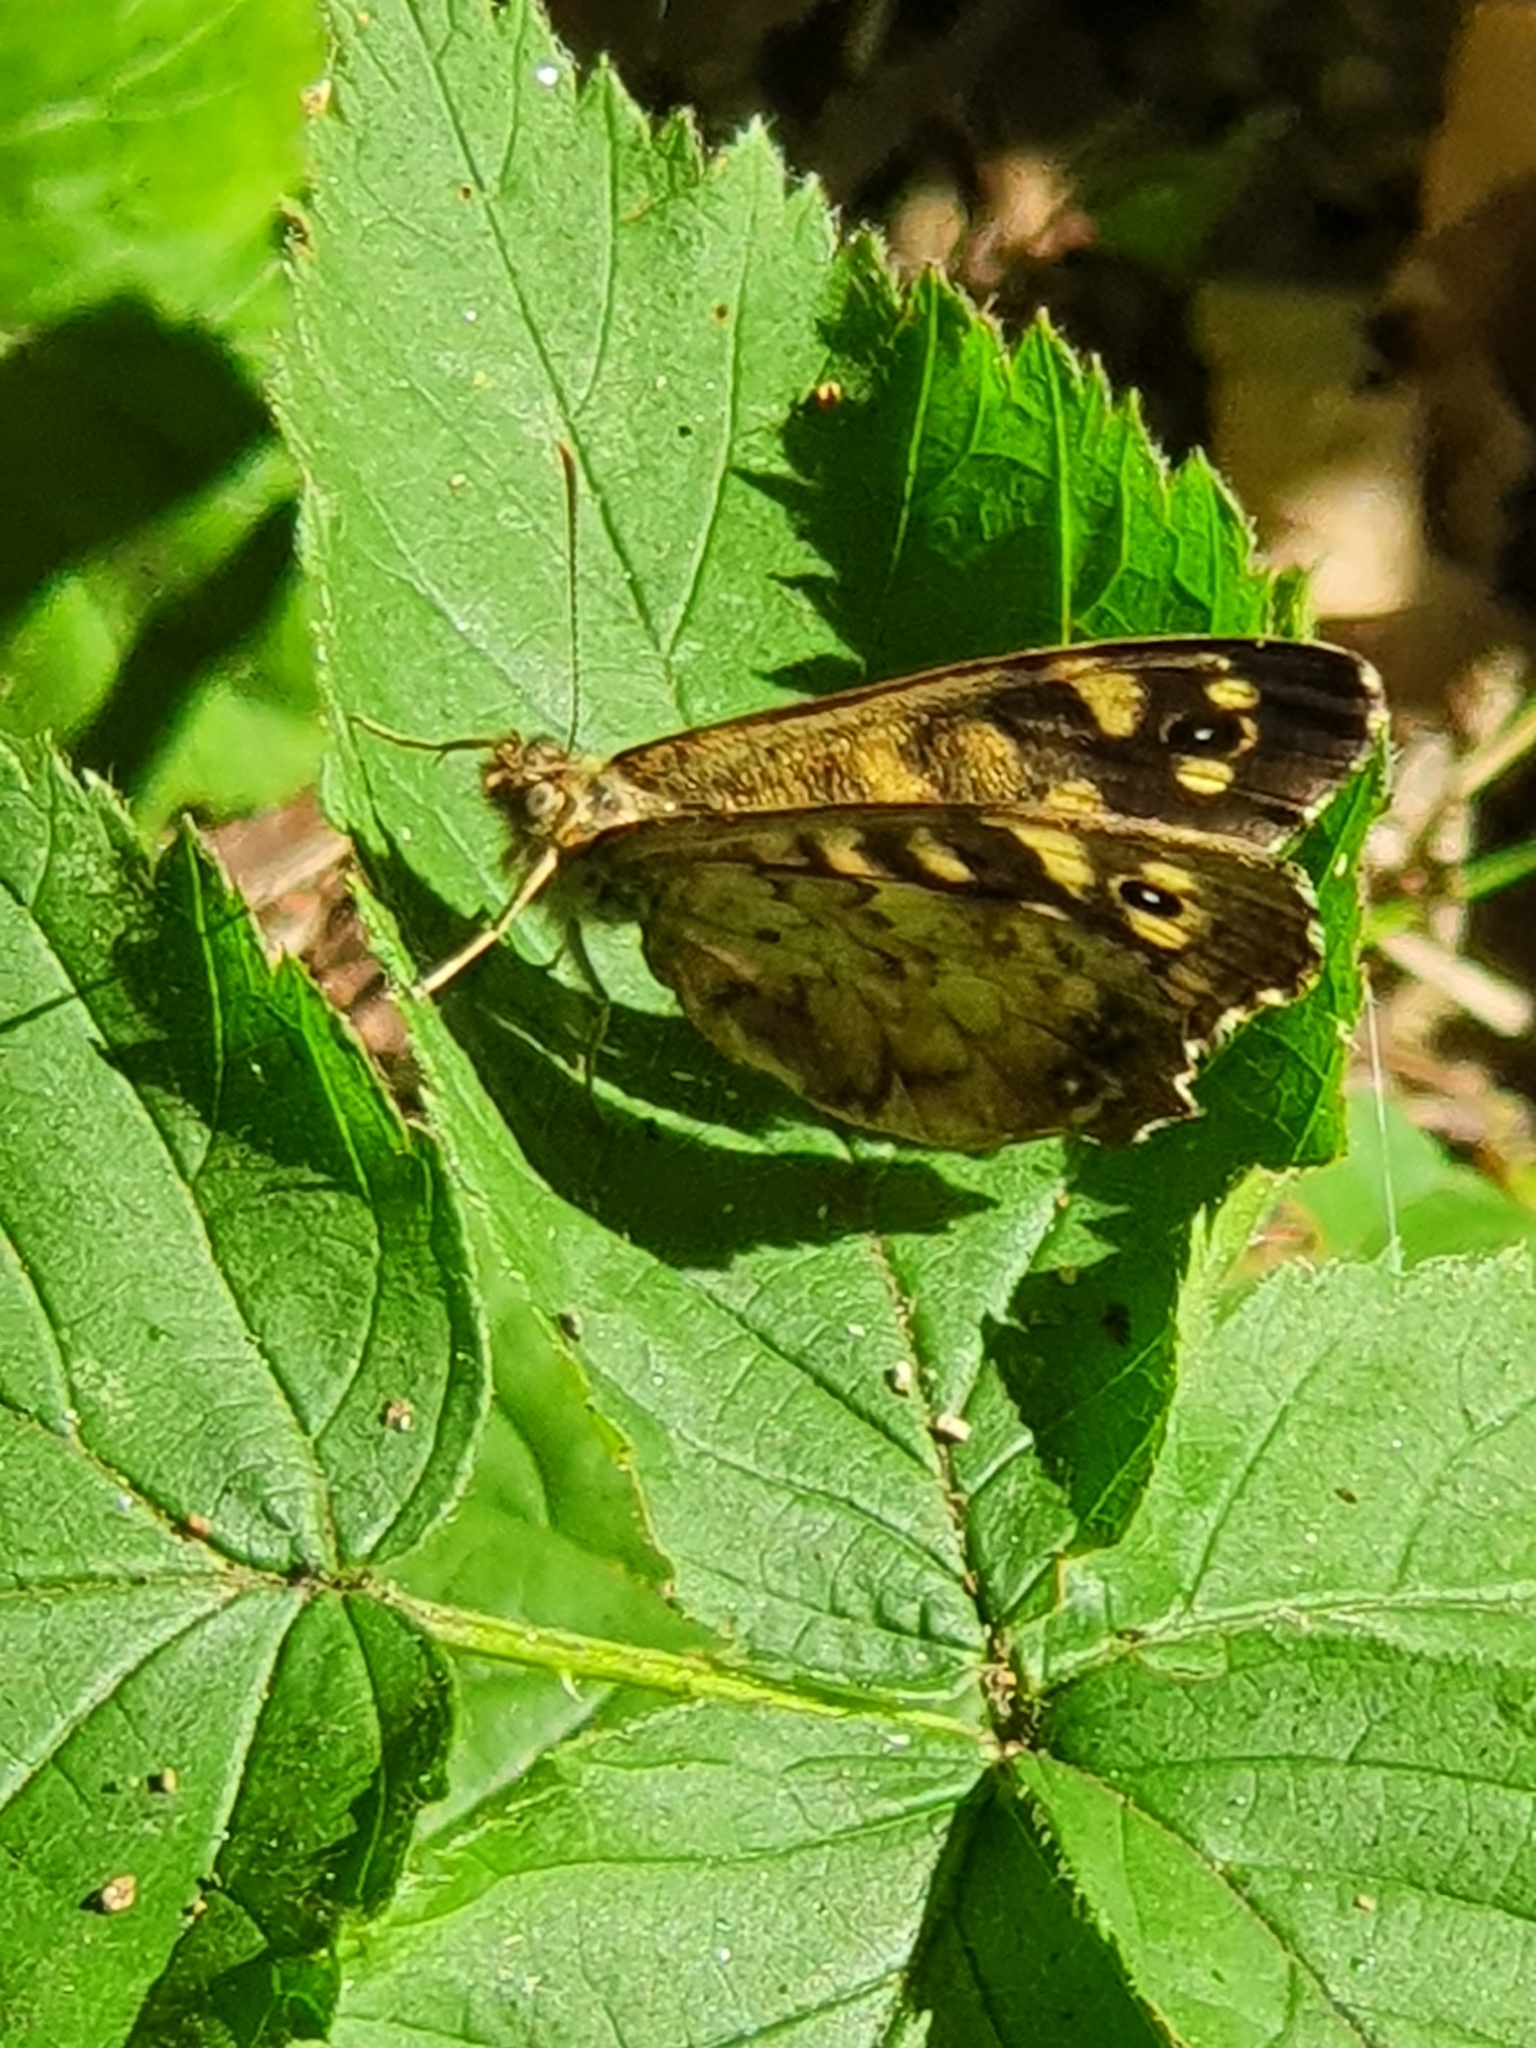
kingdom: Animalia
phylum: Arthropoda
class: Insecta
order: Lepidoptera
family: Nymphalidae
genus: Pararge
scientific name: Pararge aegeria
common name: Speckled wood
